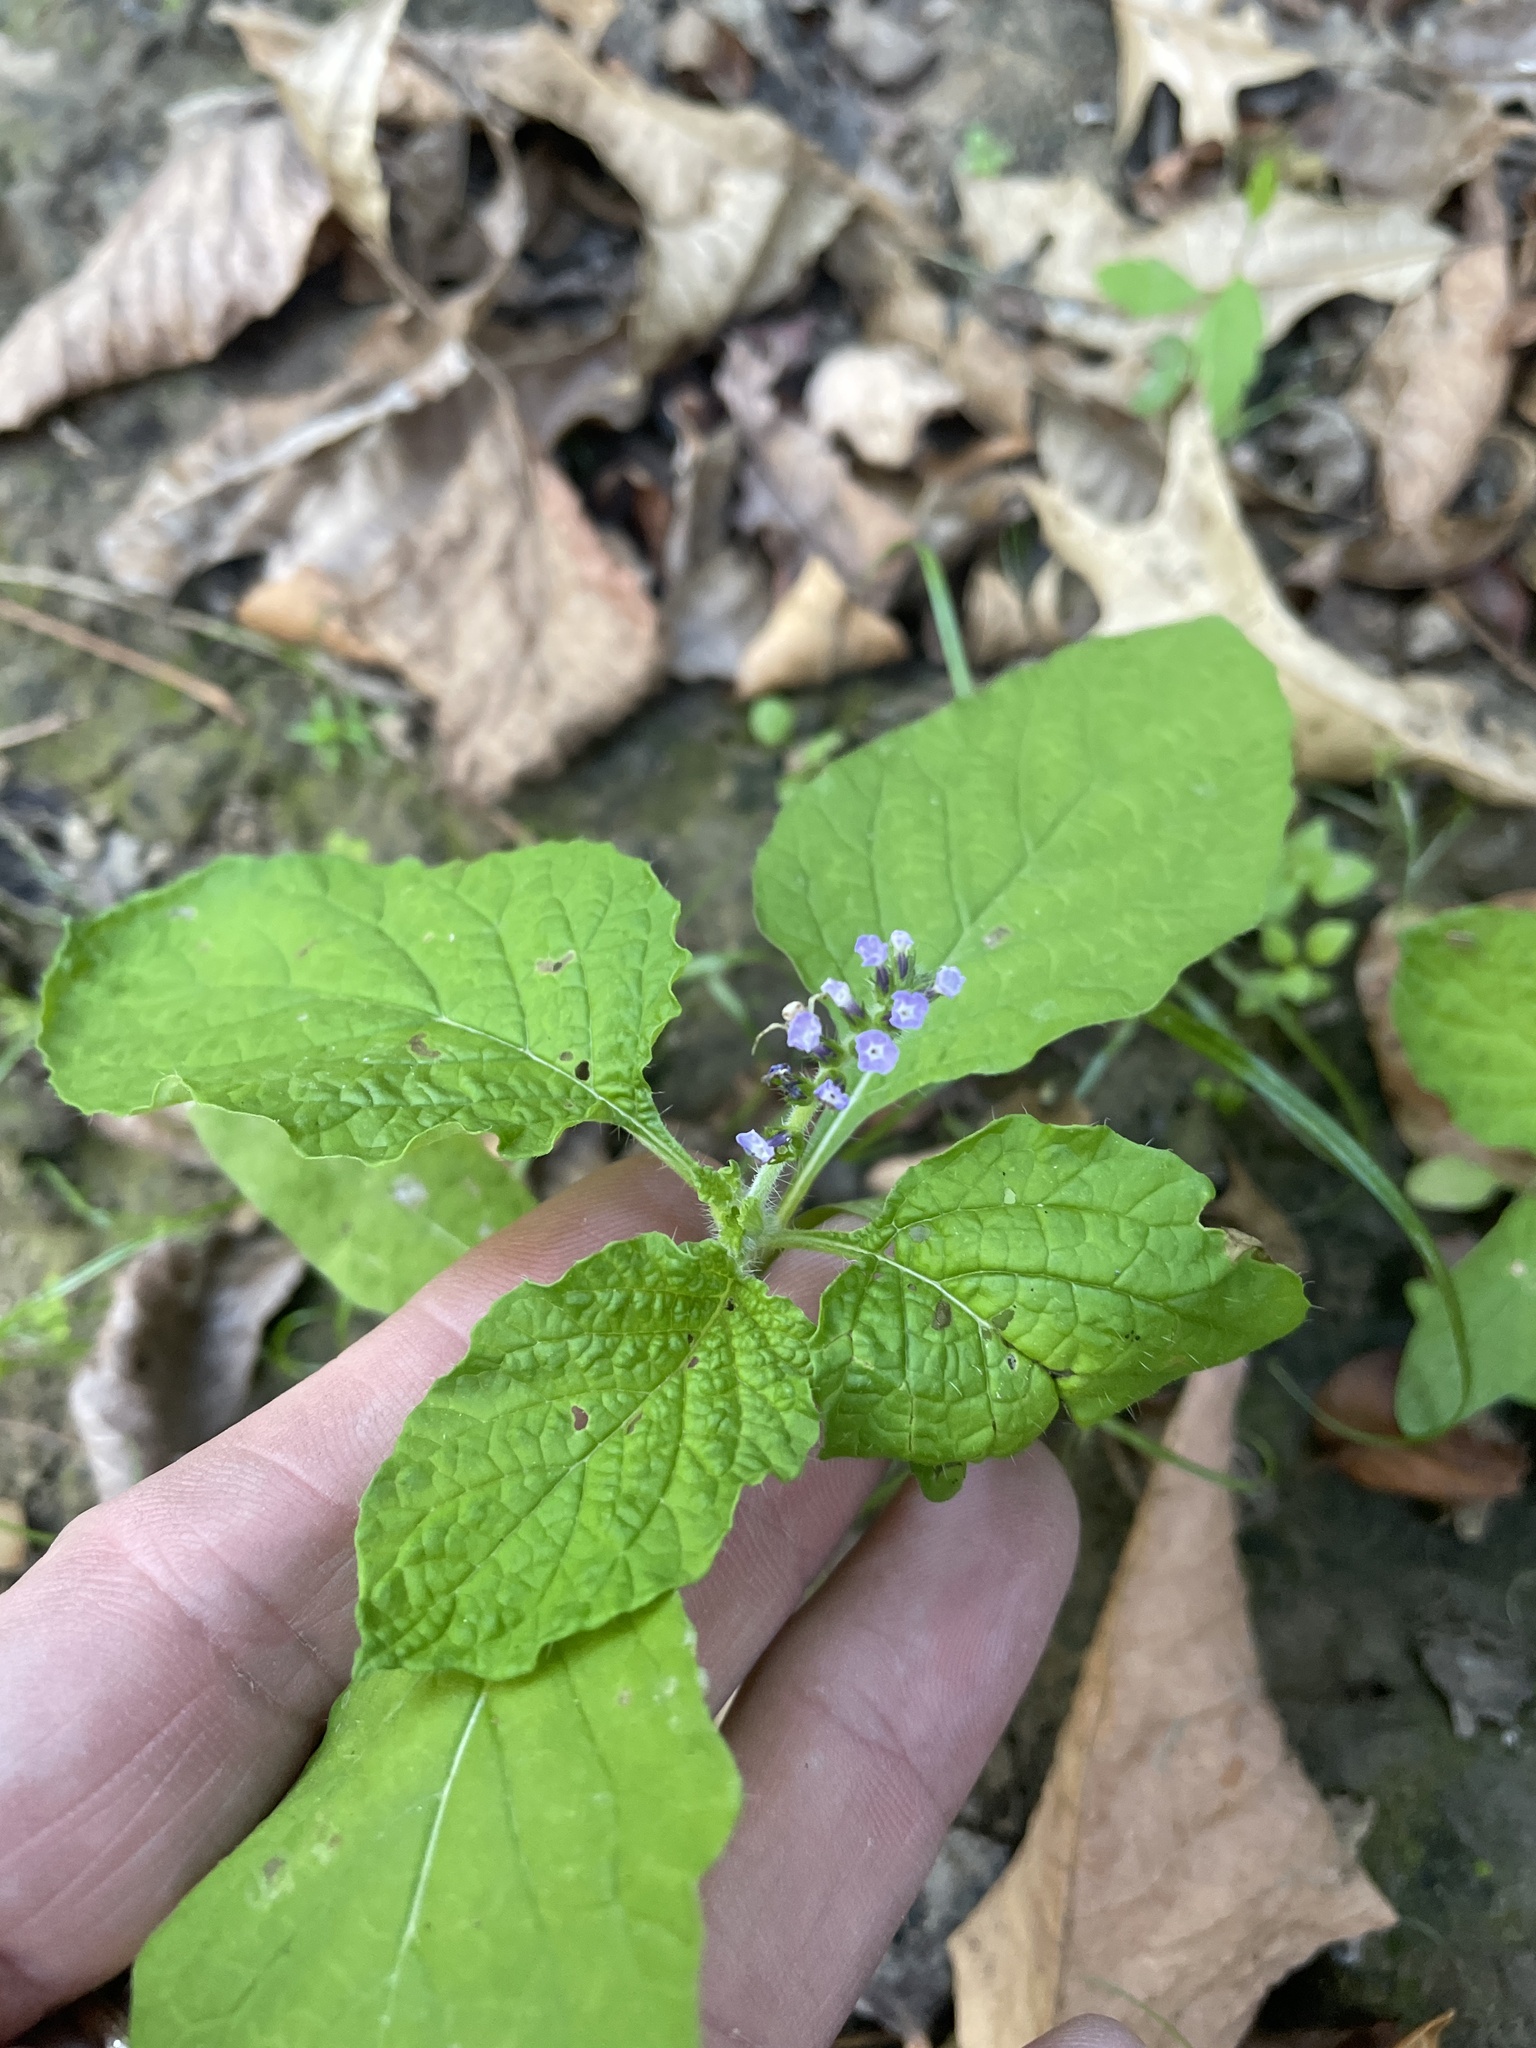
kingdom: Plantae
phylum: Tracheophyta
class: Magnoliopsida
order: Boraginales
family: Heliotropiaceae
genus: Heliotropium
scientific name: Heliotropium indicum
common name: Indian heliotrope
